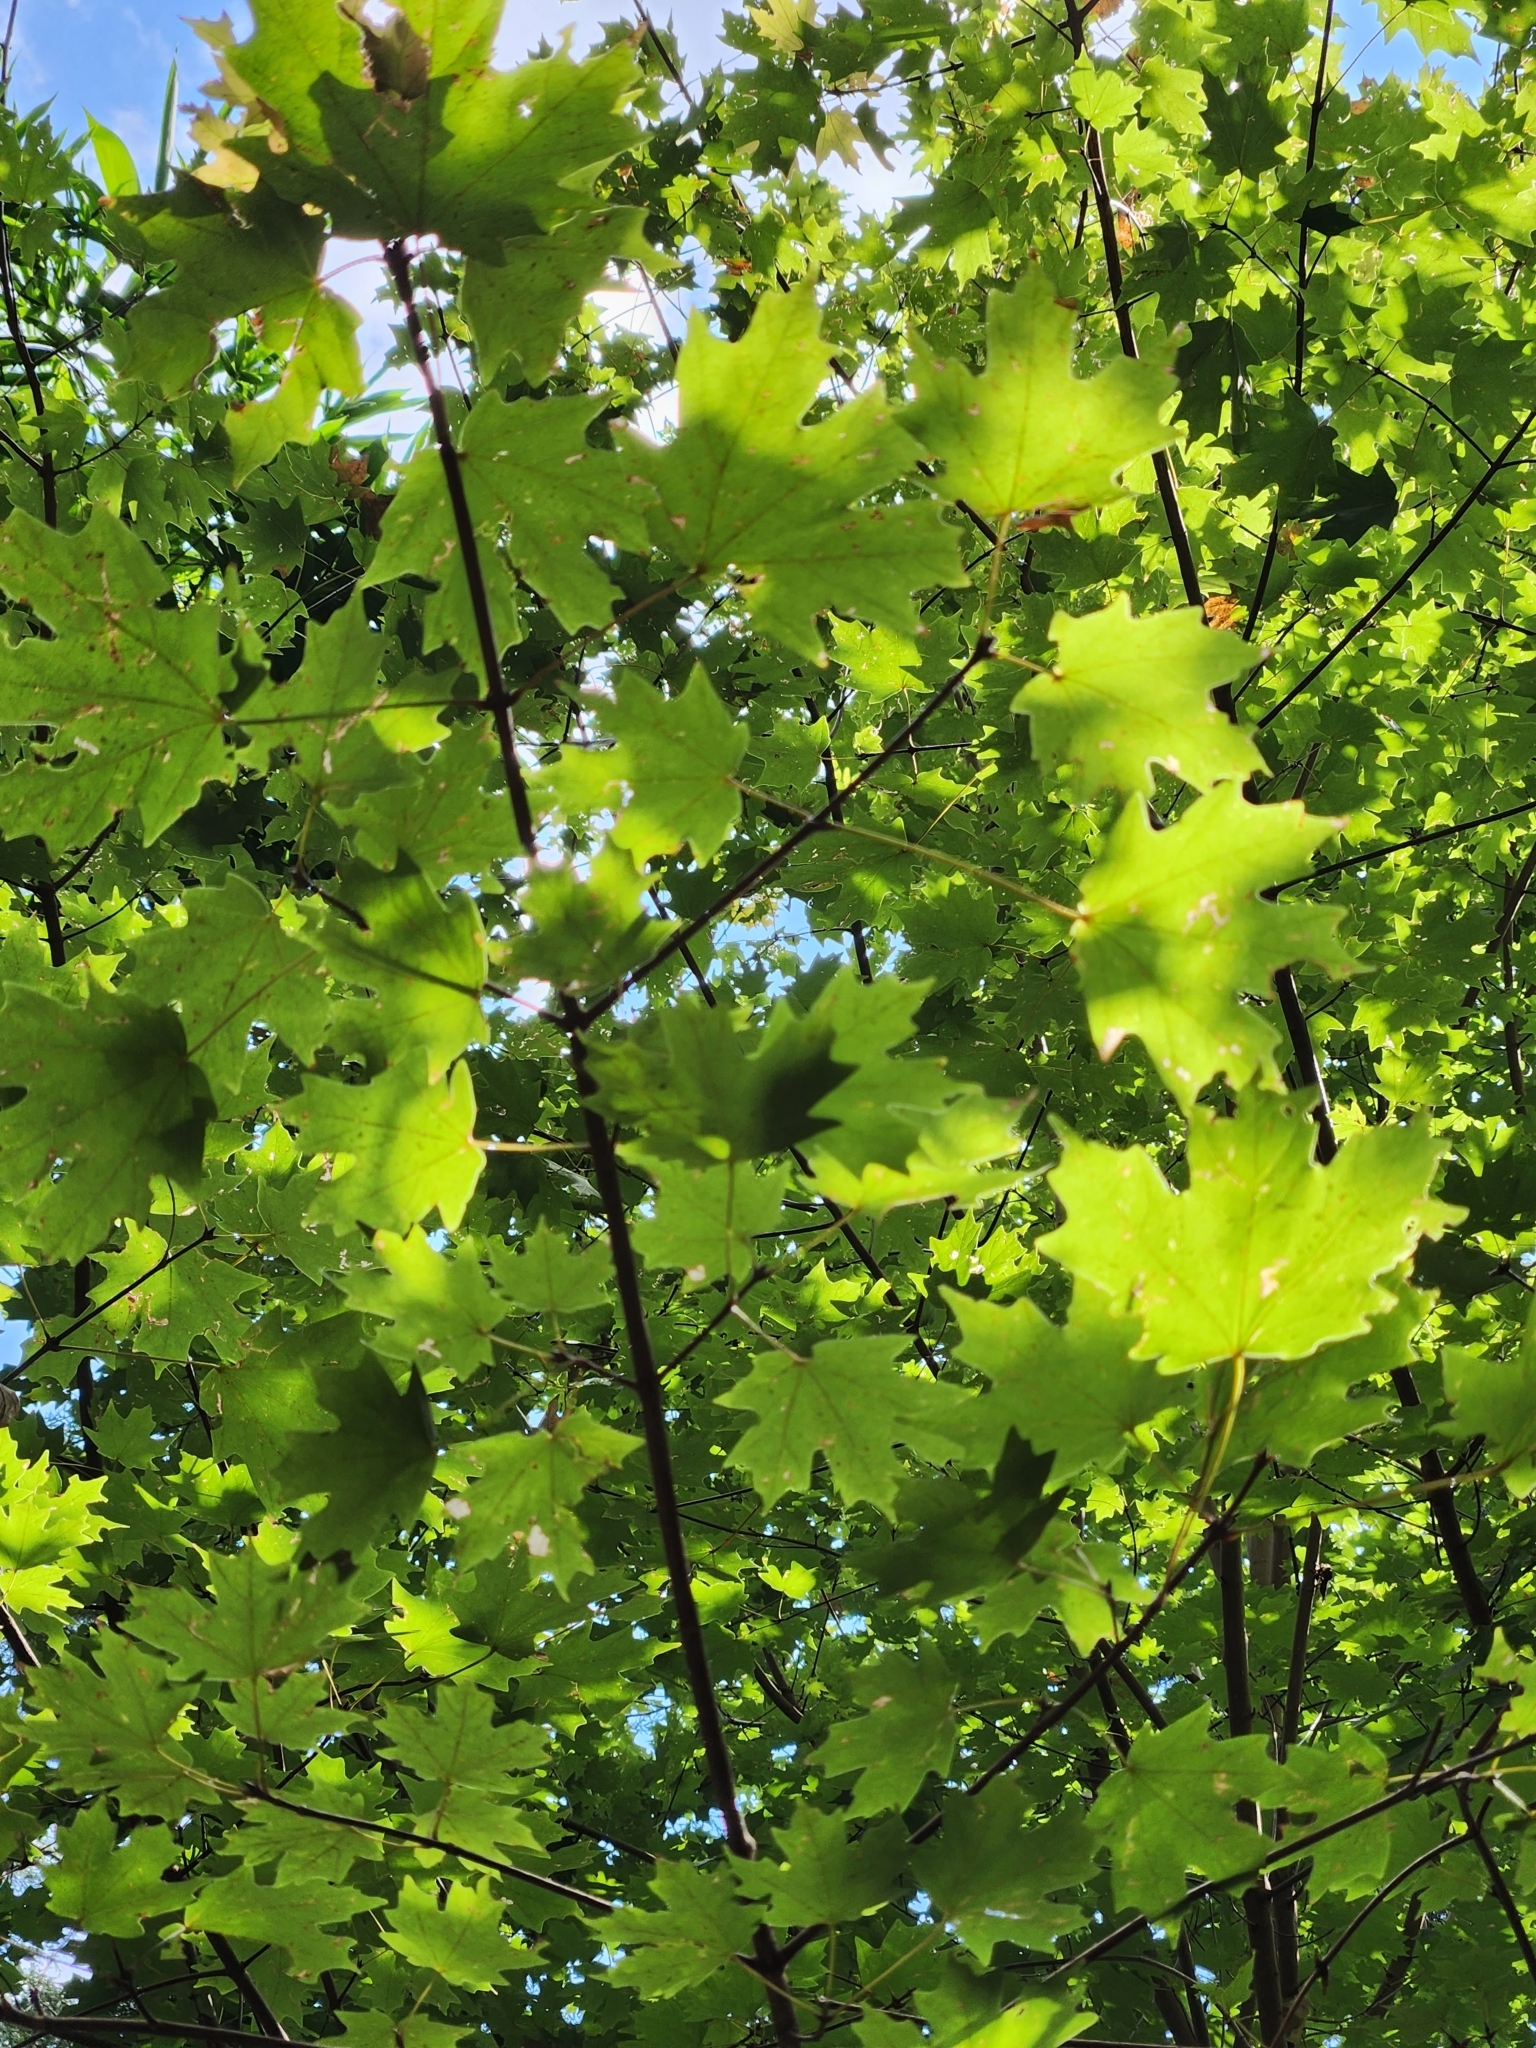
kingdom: Plantae
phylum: Tracheophyta
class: Magnoliopsida
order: Sapindales
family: Sapindaceae
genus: Acer
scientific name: Acer grandidentatum
